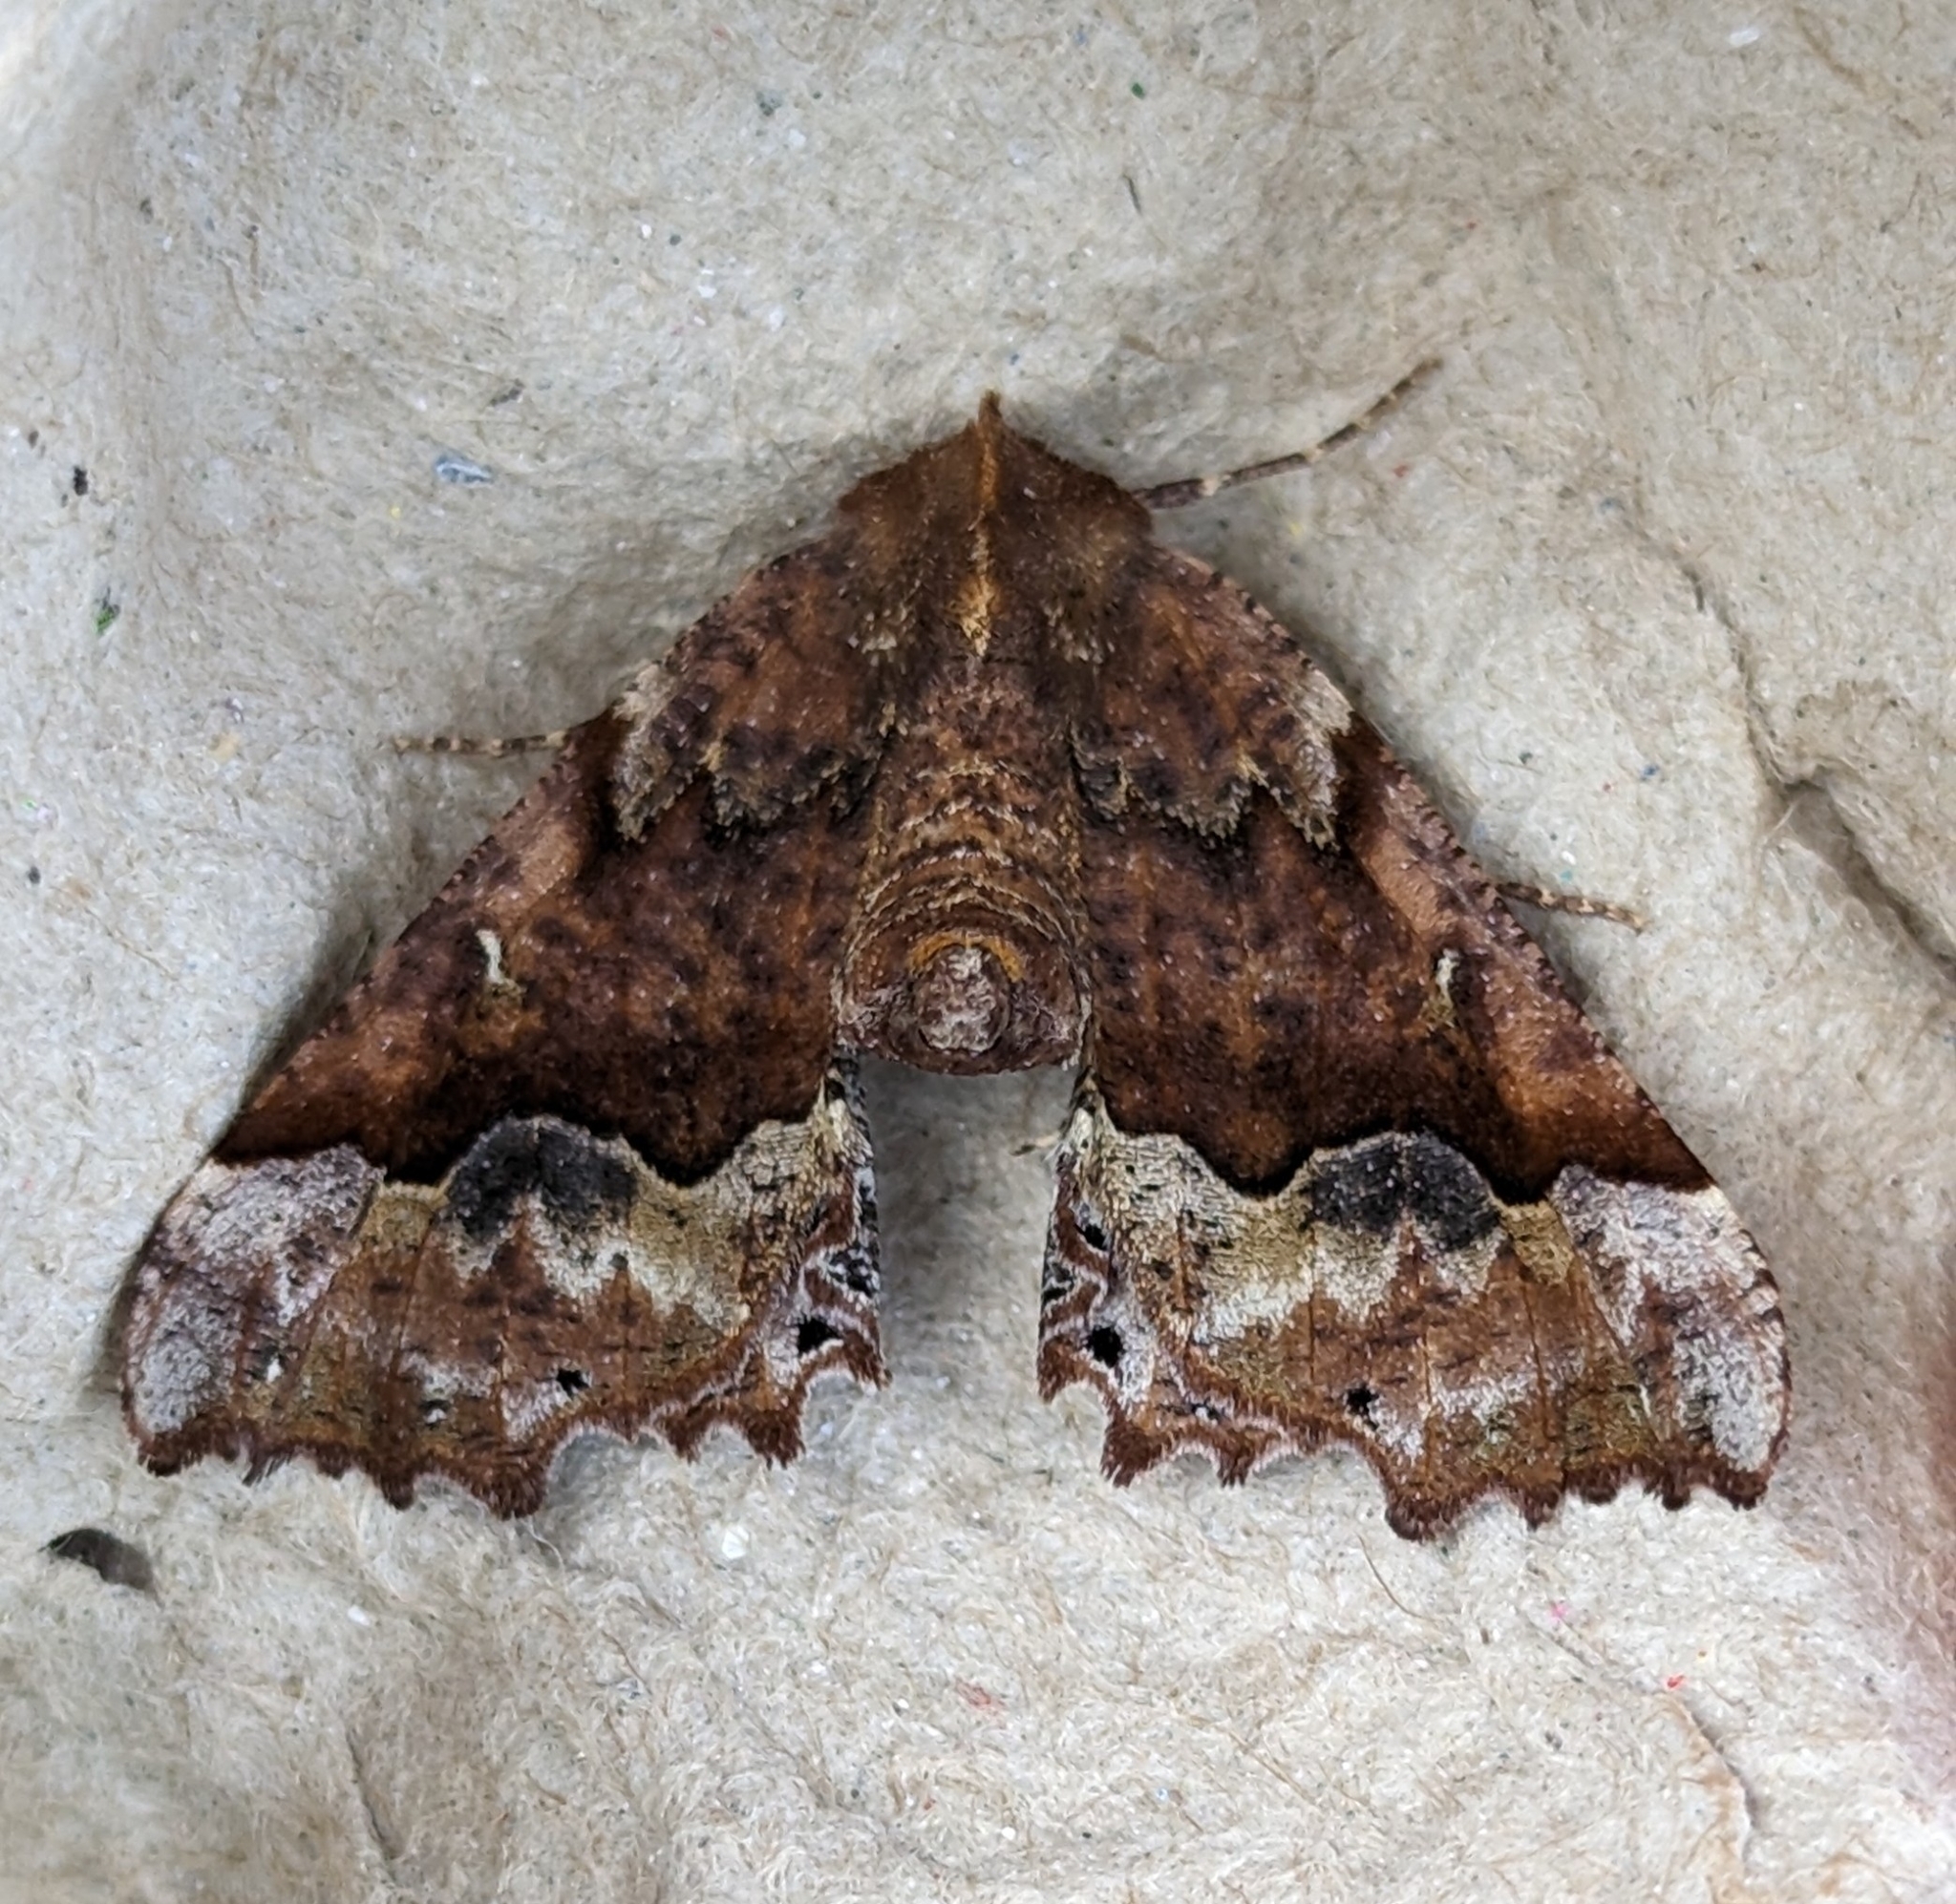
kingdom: Animalia
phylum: Arthropoda
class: Insecta
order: Lepidoptera
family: Geometridae
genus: Pero
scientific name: Pero morrisonaria
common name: Morrison's pero
